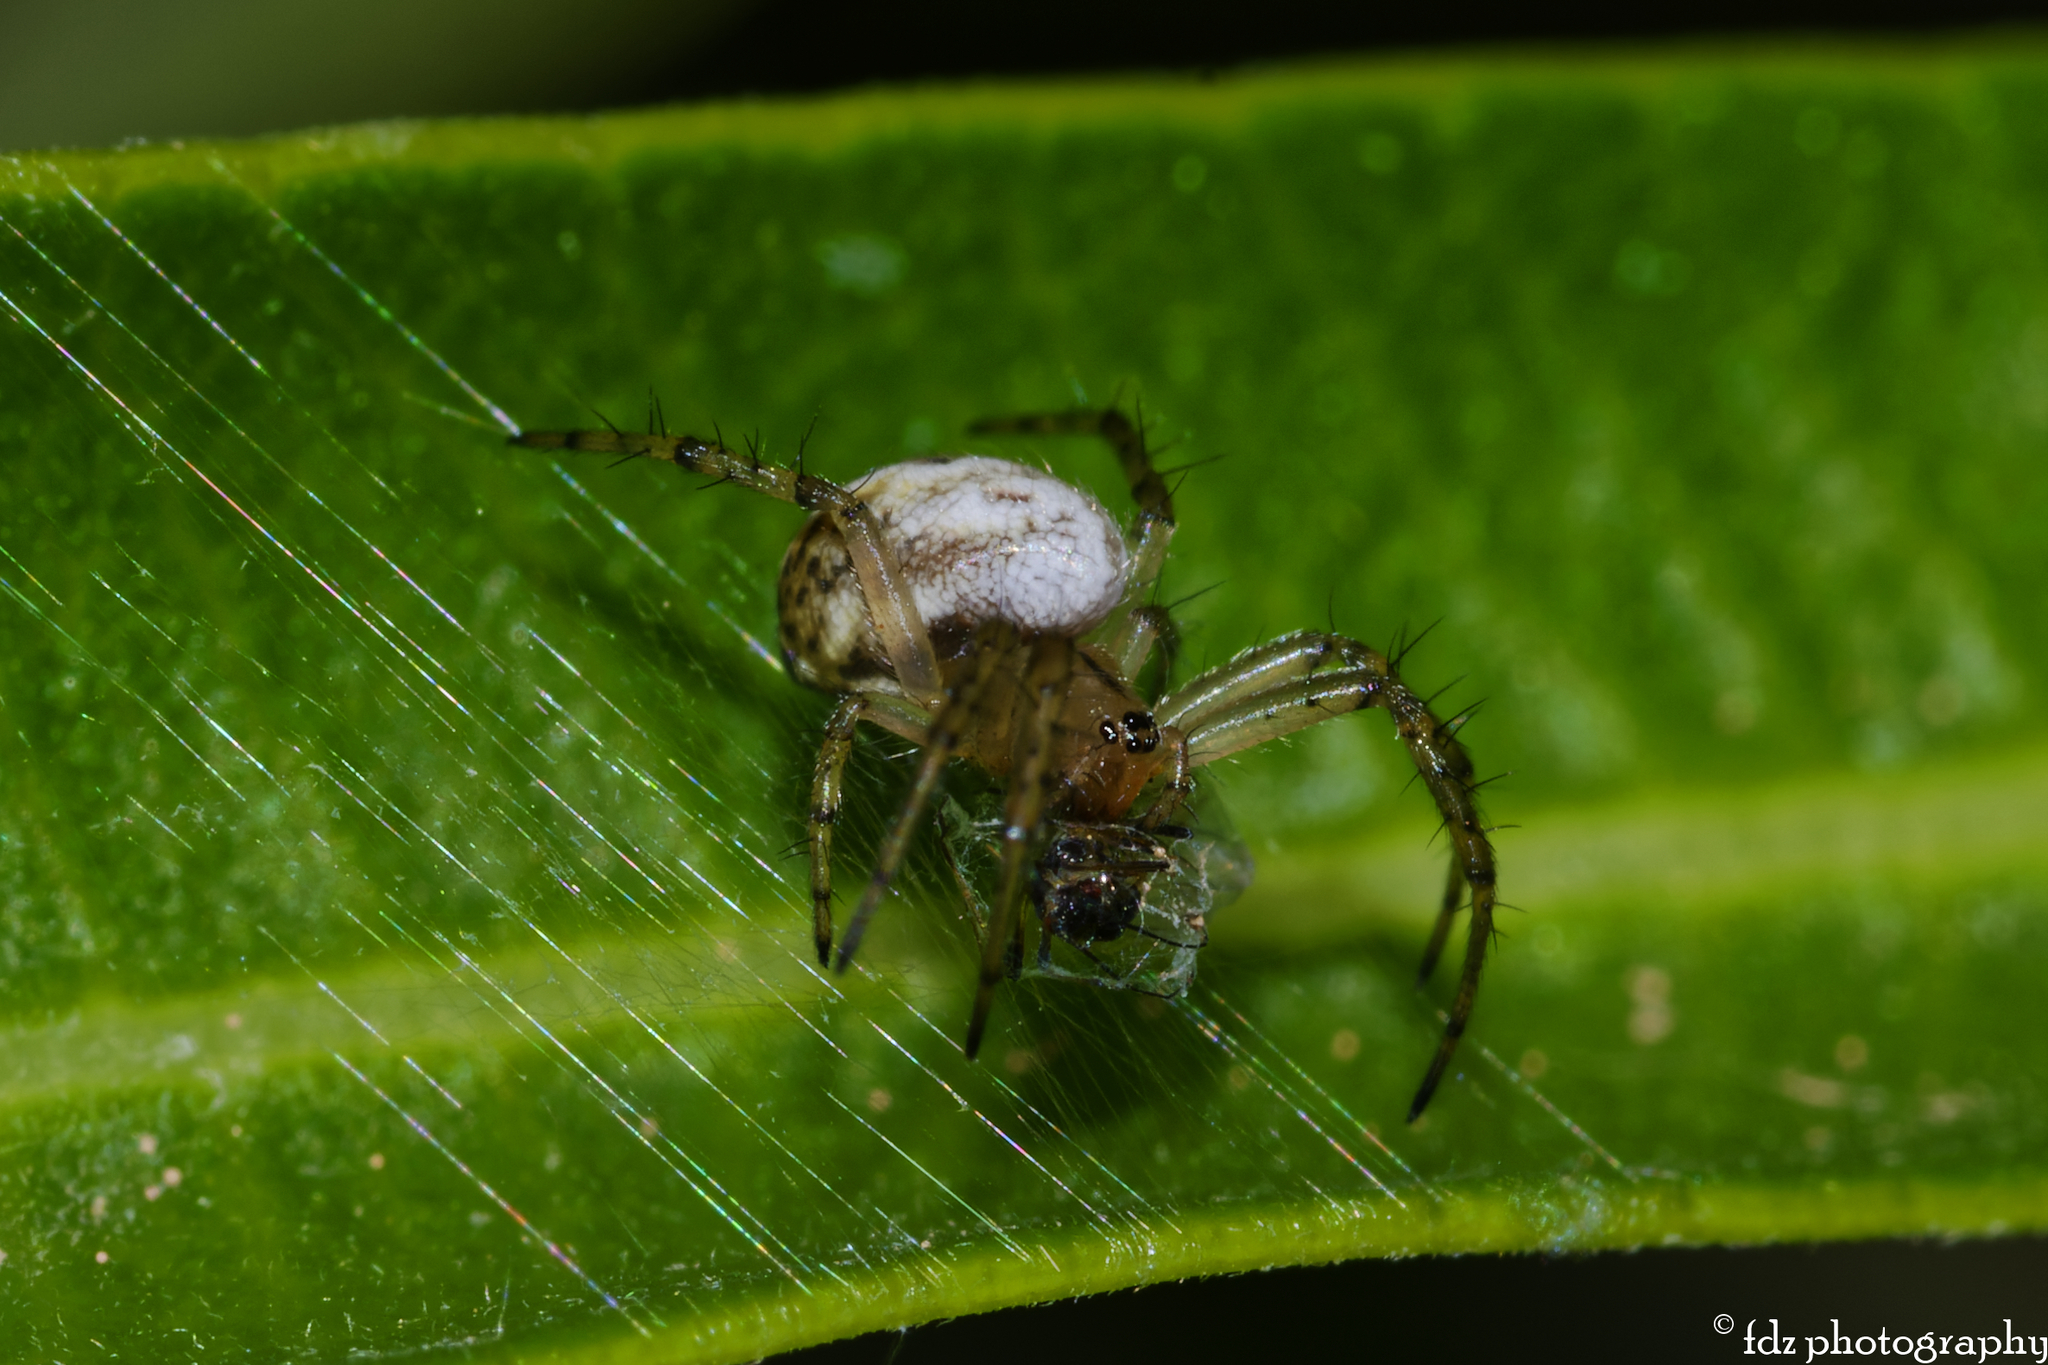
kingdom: Animalia
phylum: Arthropoda
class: Arachnida
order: Araneae
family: Araneidae
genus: Mangora
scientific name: Mangora acalypha
